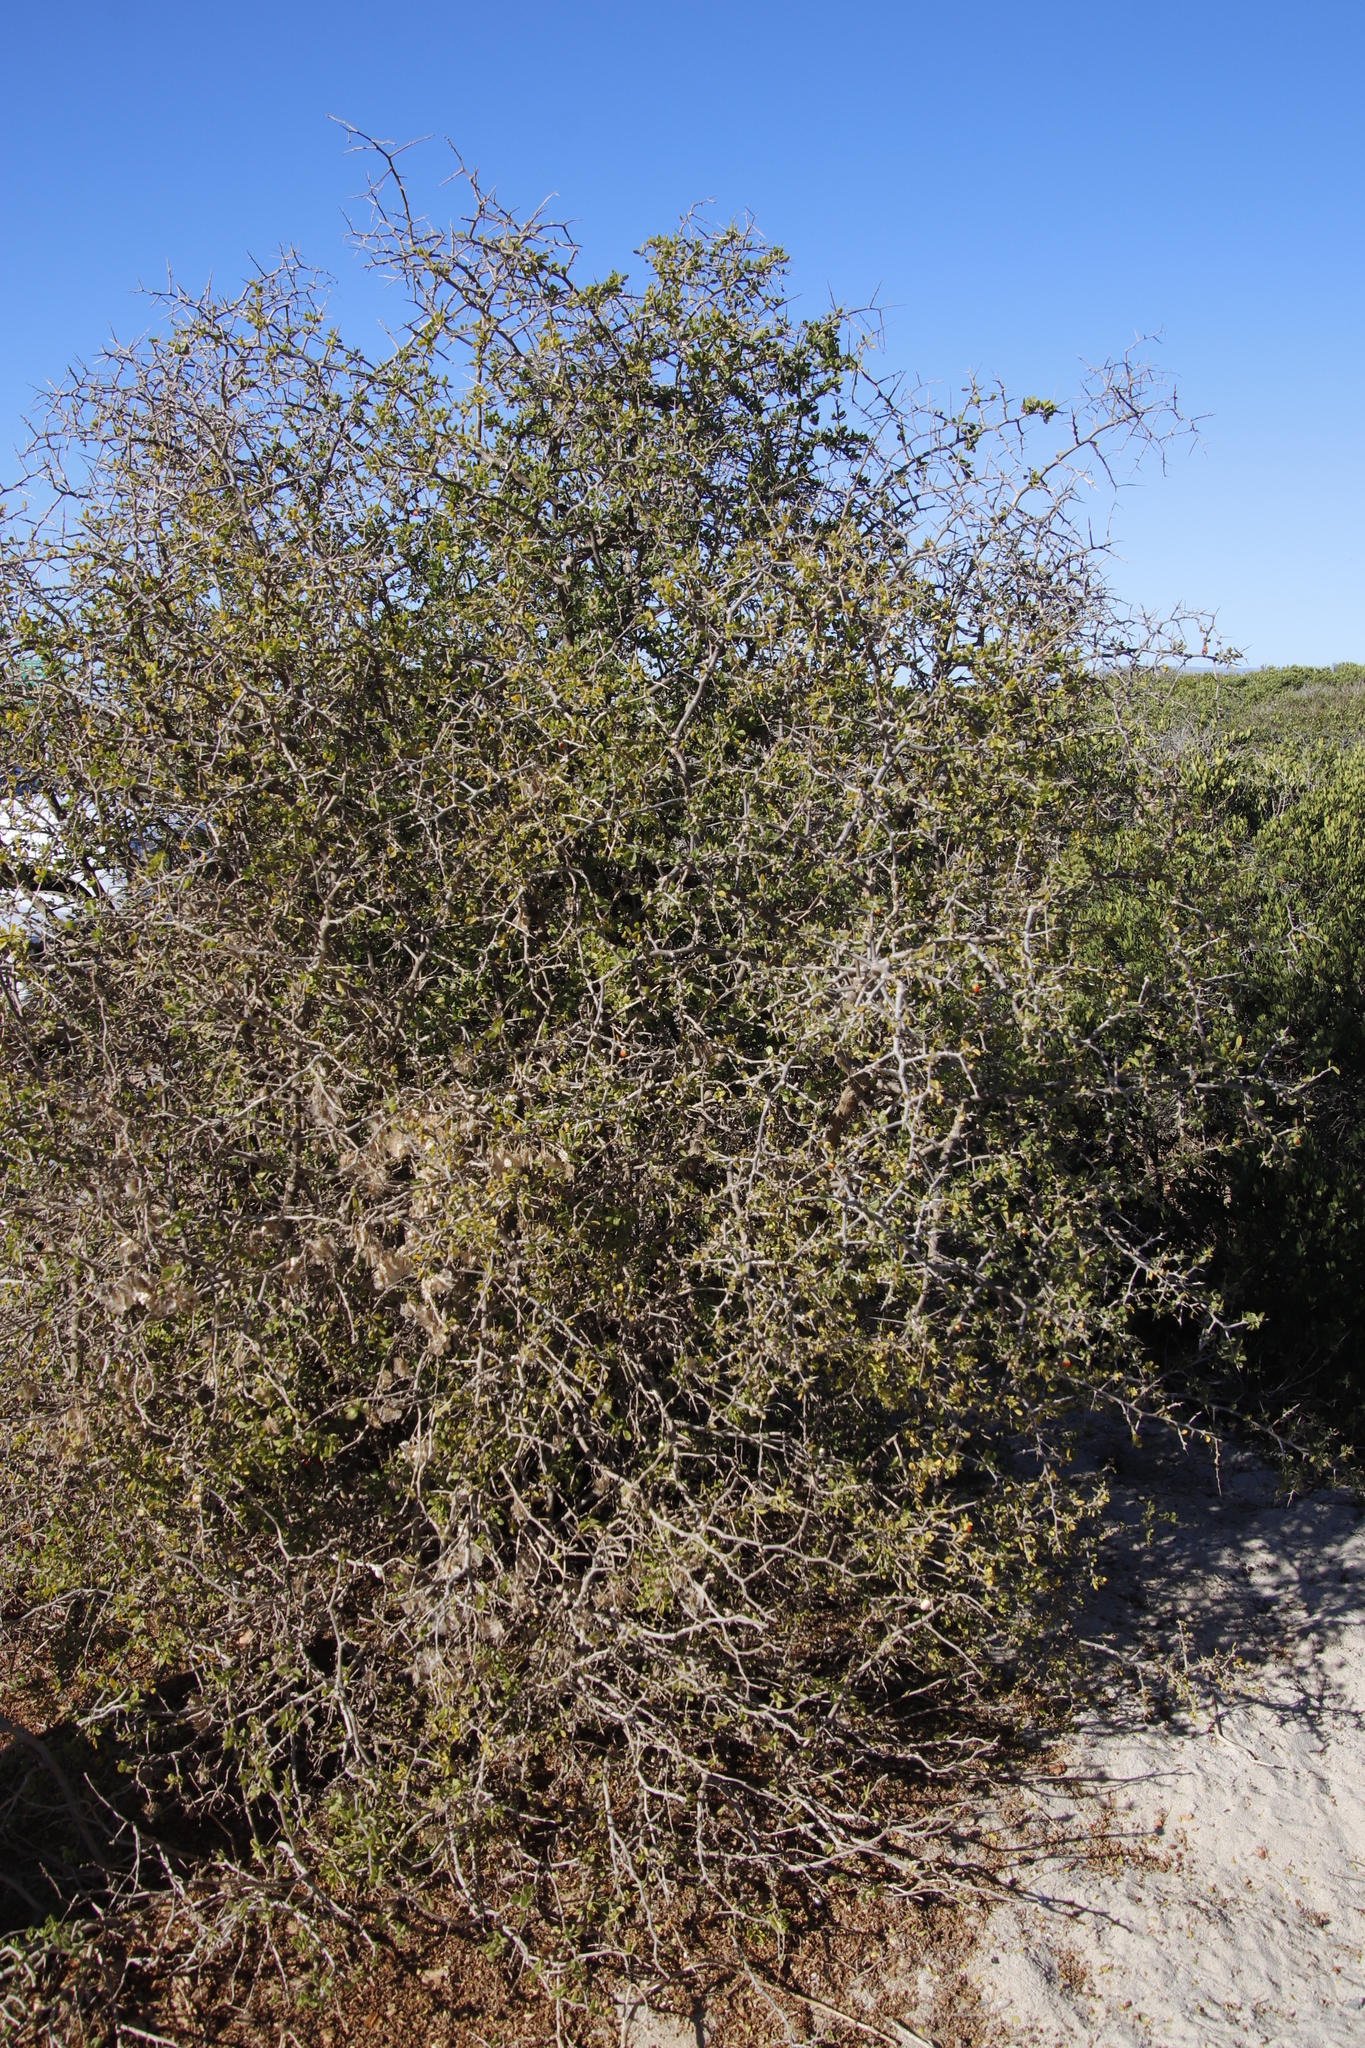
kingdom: Plantae
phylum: Tracheophyta
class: Magnoliopsida
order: Solanales
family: Solanaceae
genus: Lycium
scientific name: Lycium ferocissimum
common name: African boxthorn
